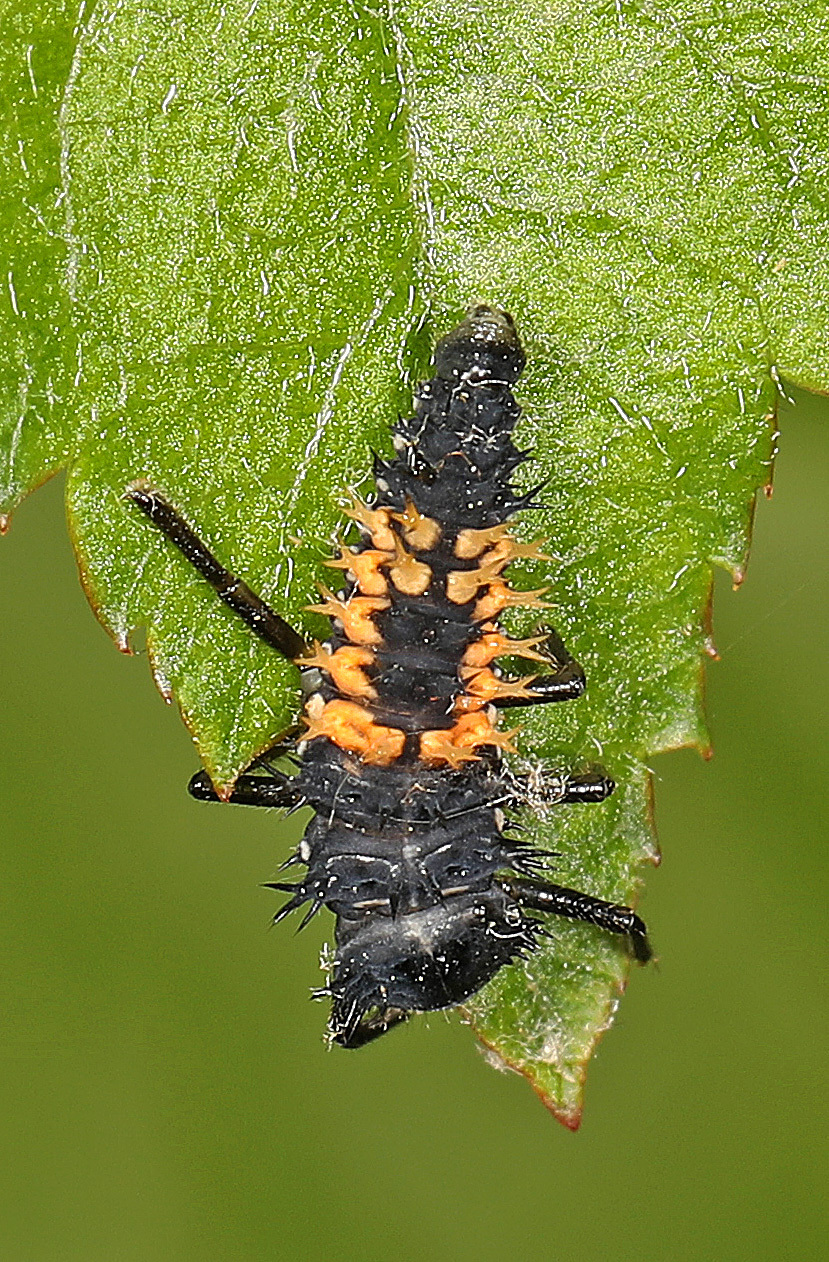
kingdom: Animalia
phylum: Arthropoda
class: Insecta
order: Coleoptera
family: Coccinellidae
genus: Harmonia
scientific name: Harmonia axyridis
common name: Harlequin ladybird
